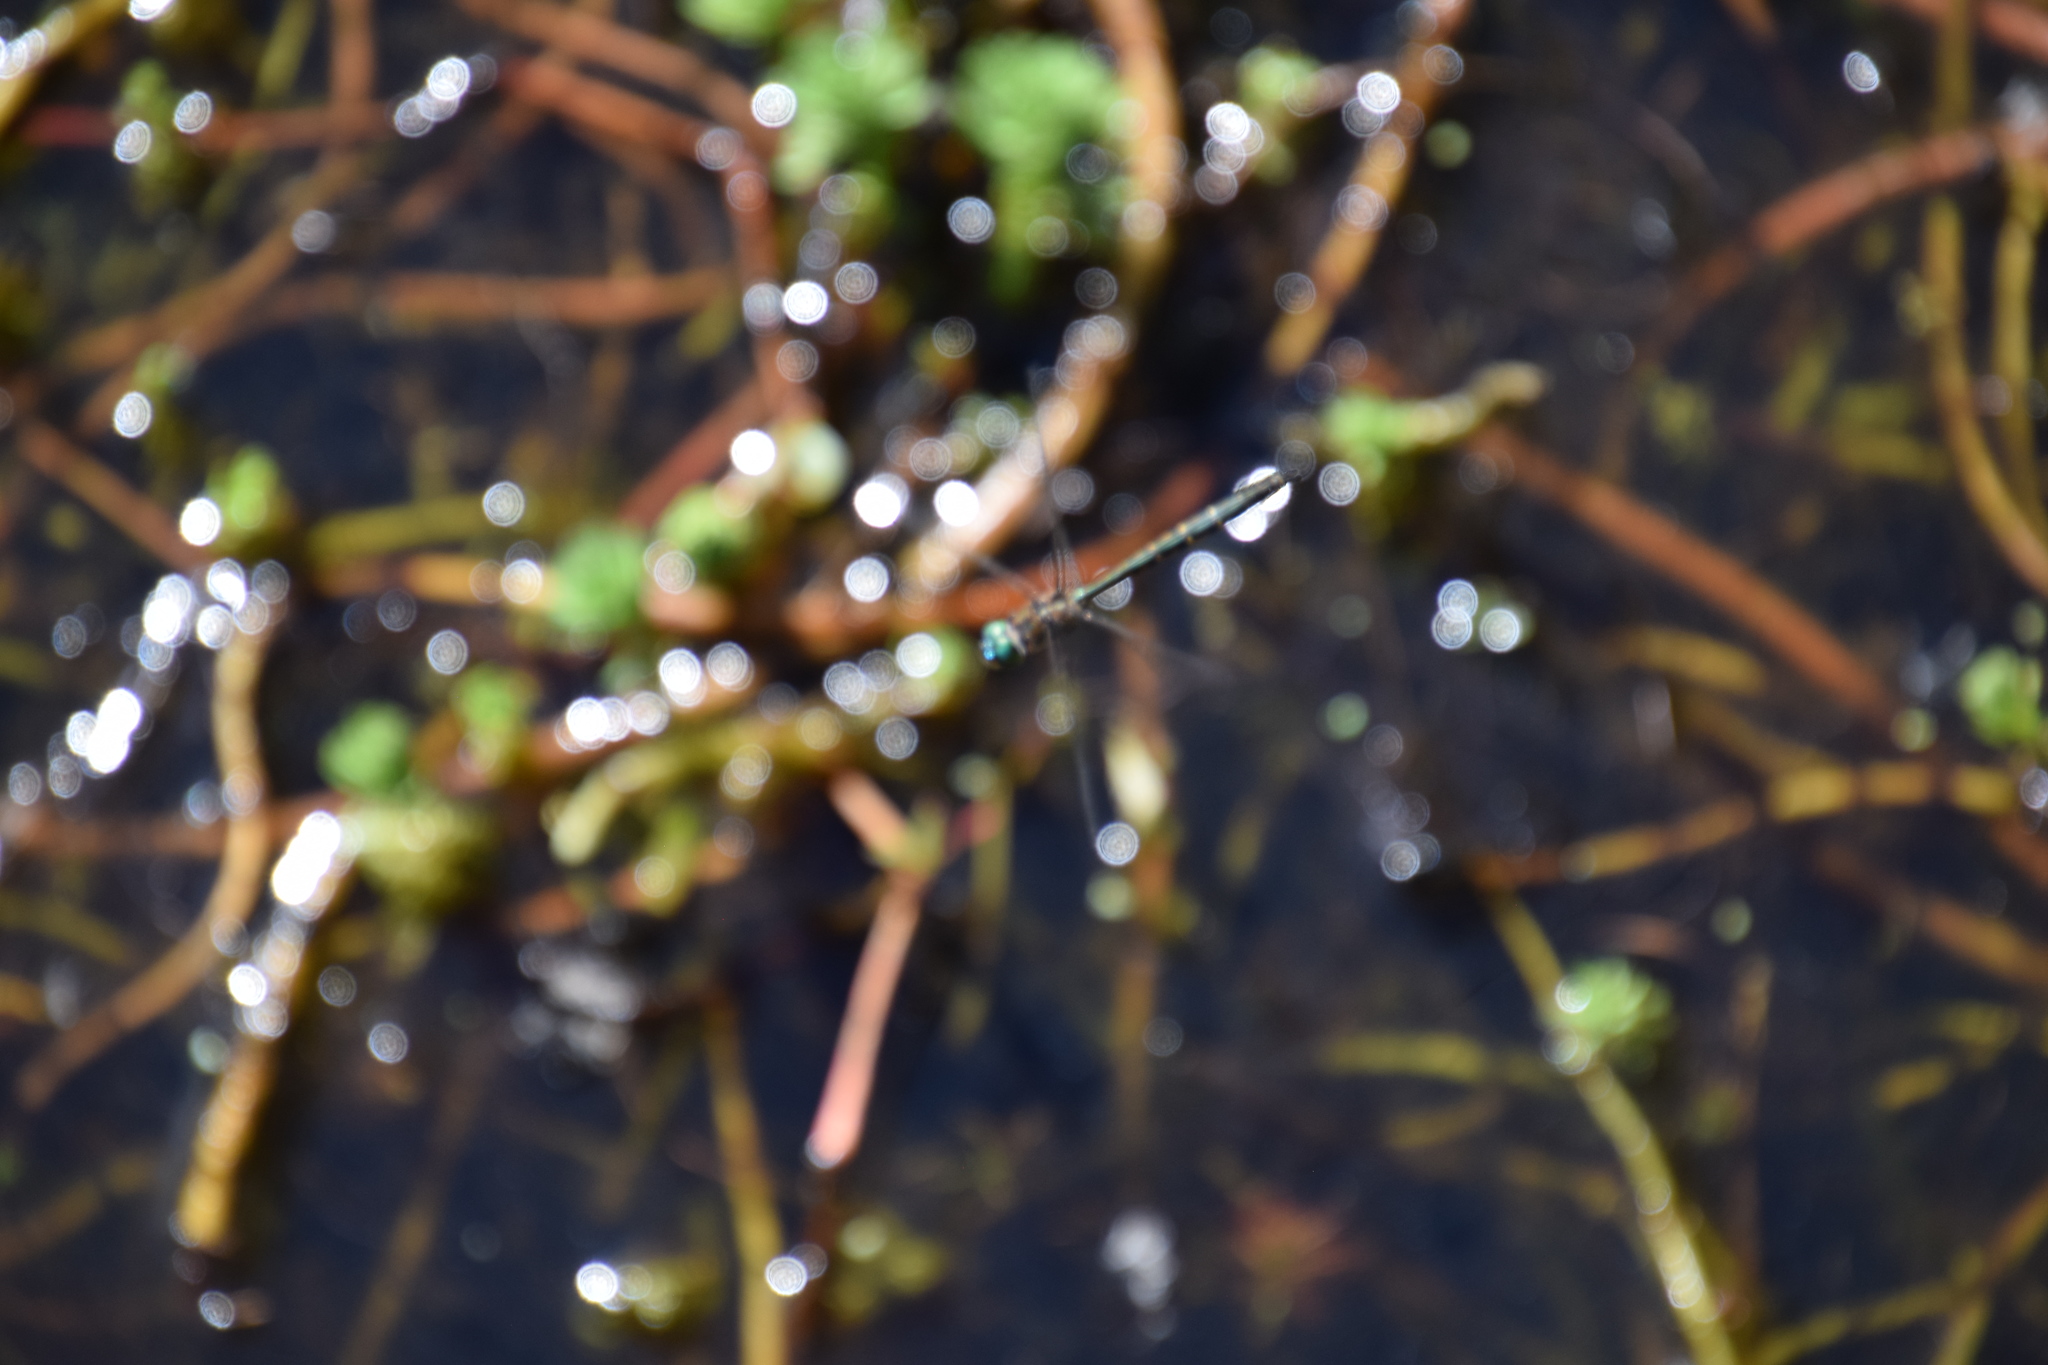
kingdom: Animalia
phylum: Arthropoda
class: Insecta
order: Odonata
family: Corduliidae
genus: Hemicordulia
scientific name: Hemicordulia australiae
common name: Sentry dragonfly
